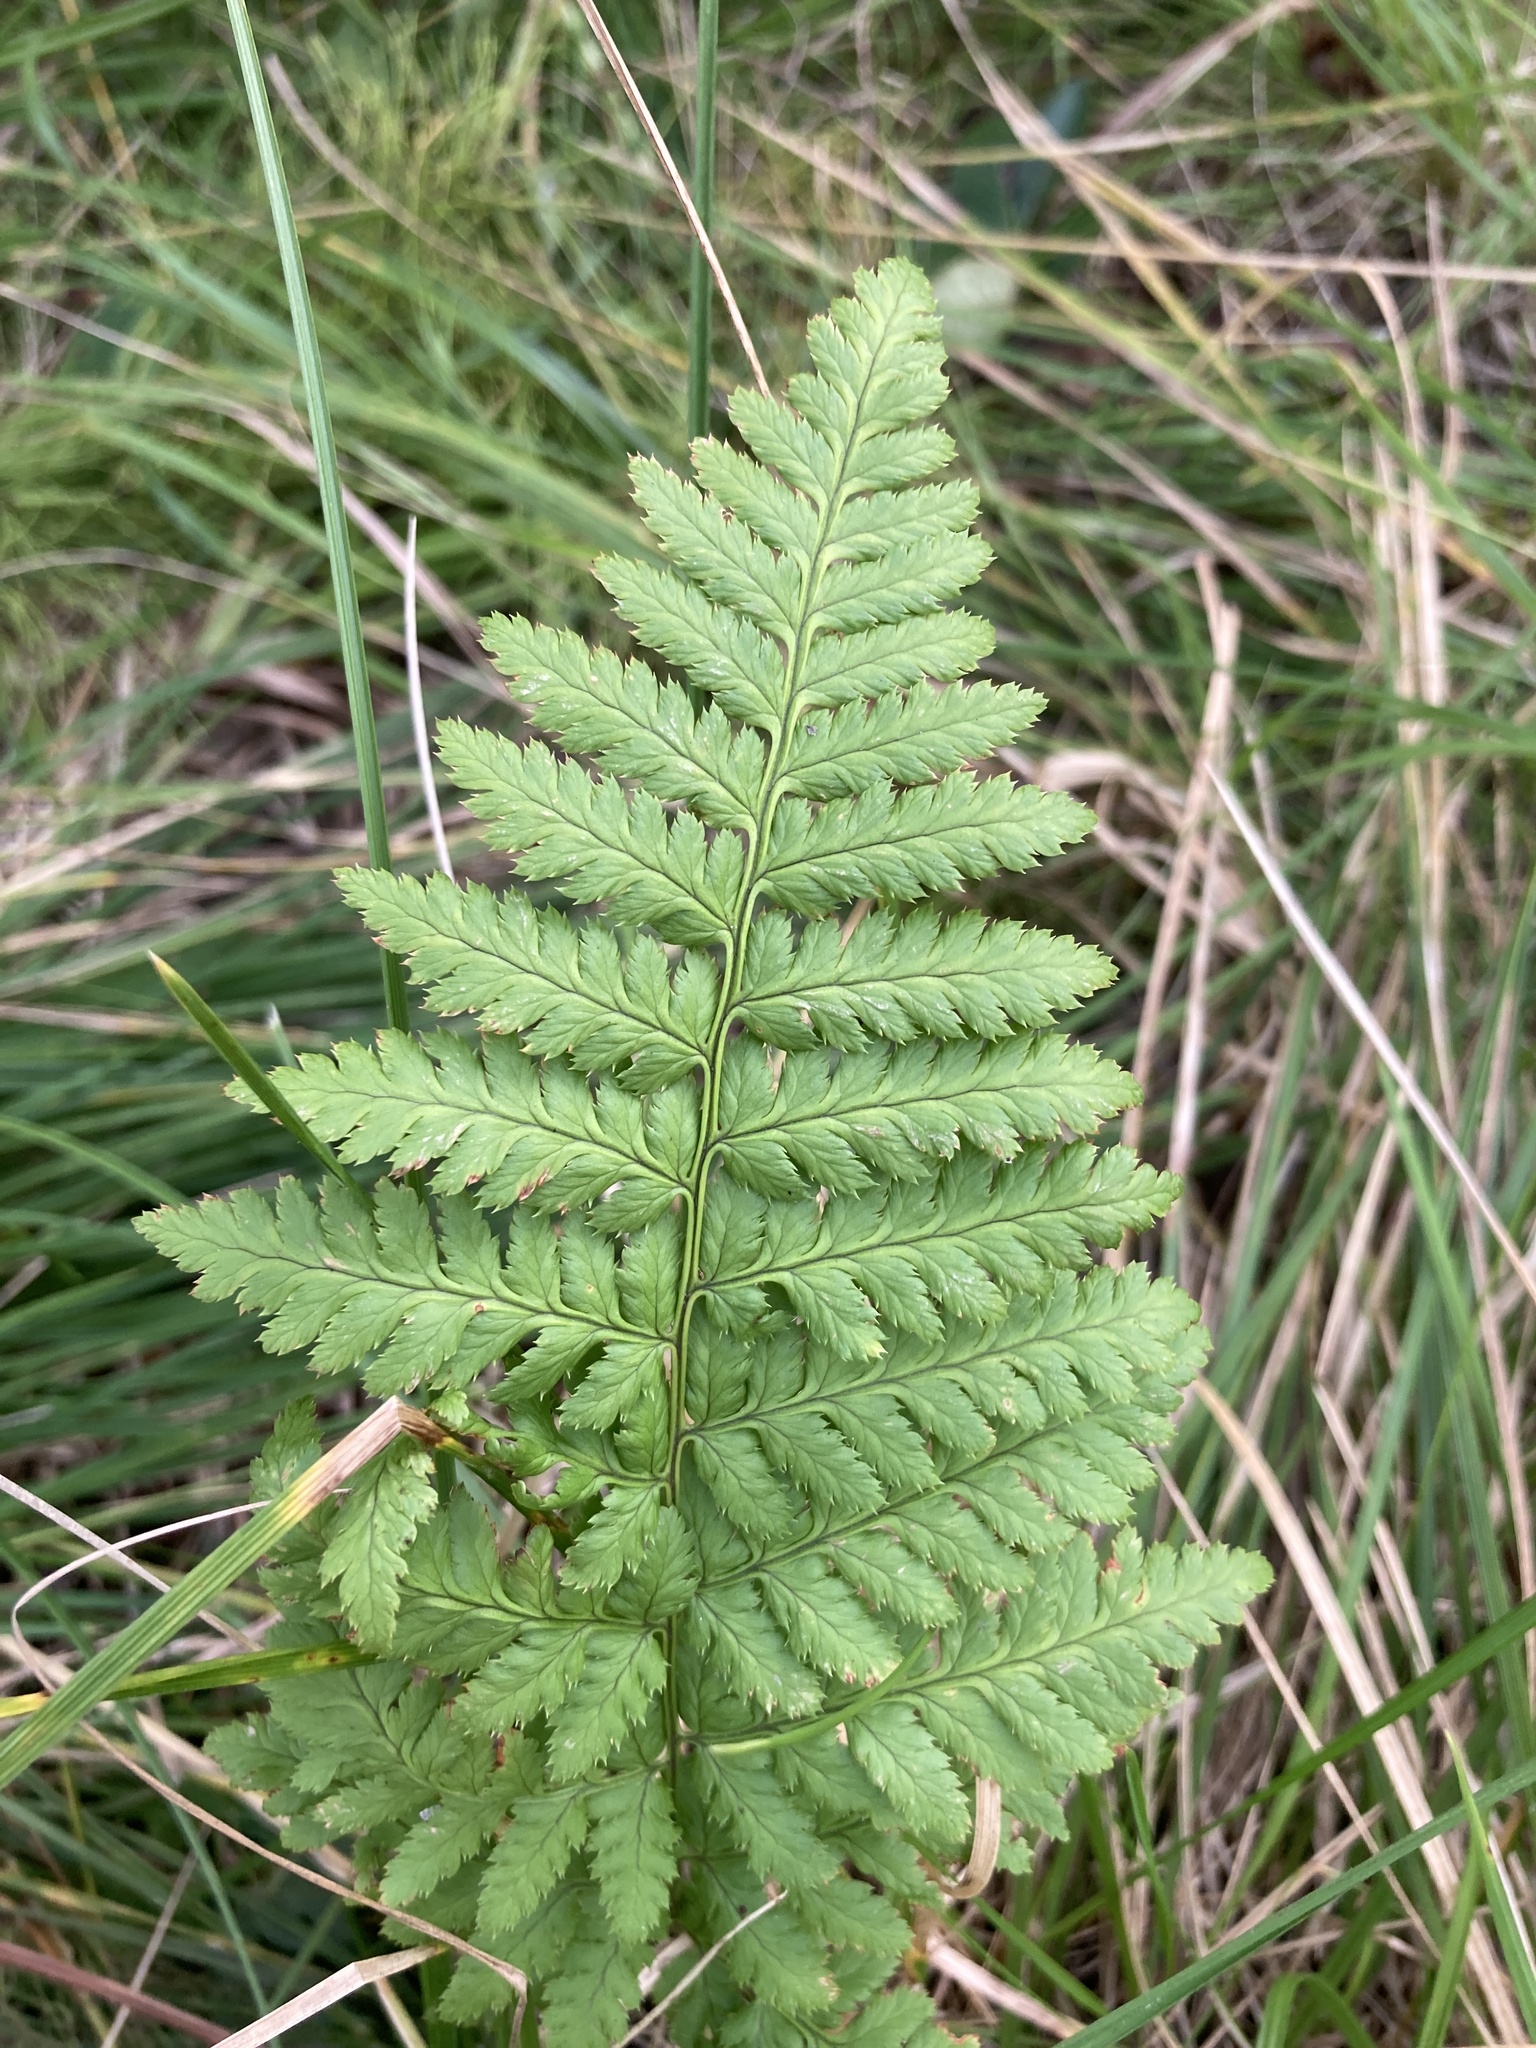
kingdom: Plantae
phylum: Tracheophyta
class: Polypodiopsida
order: Polypodiales
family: Dryopteridaceae
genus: Dryopteris
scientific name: Dryopteris carthusiana
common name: Narrow buckler-fern
